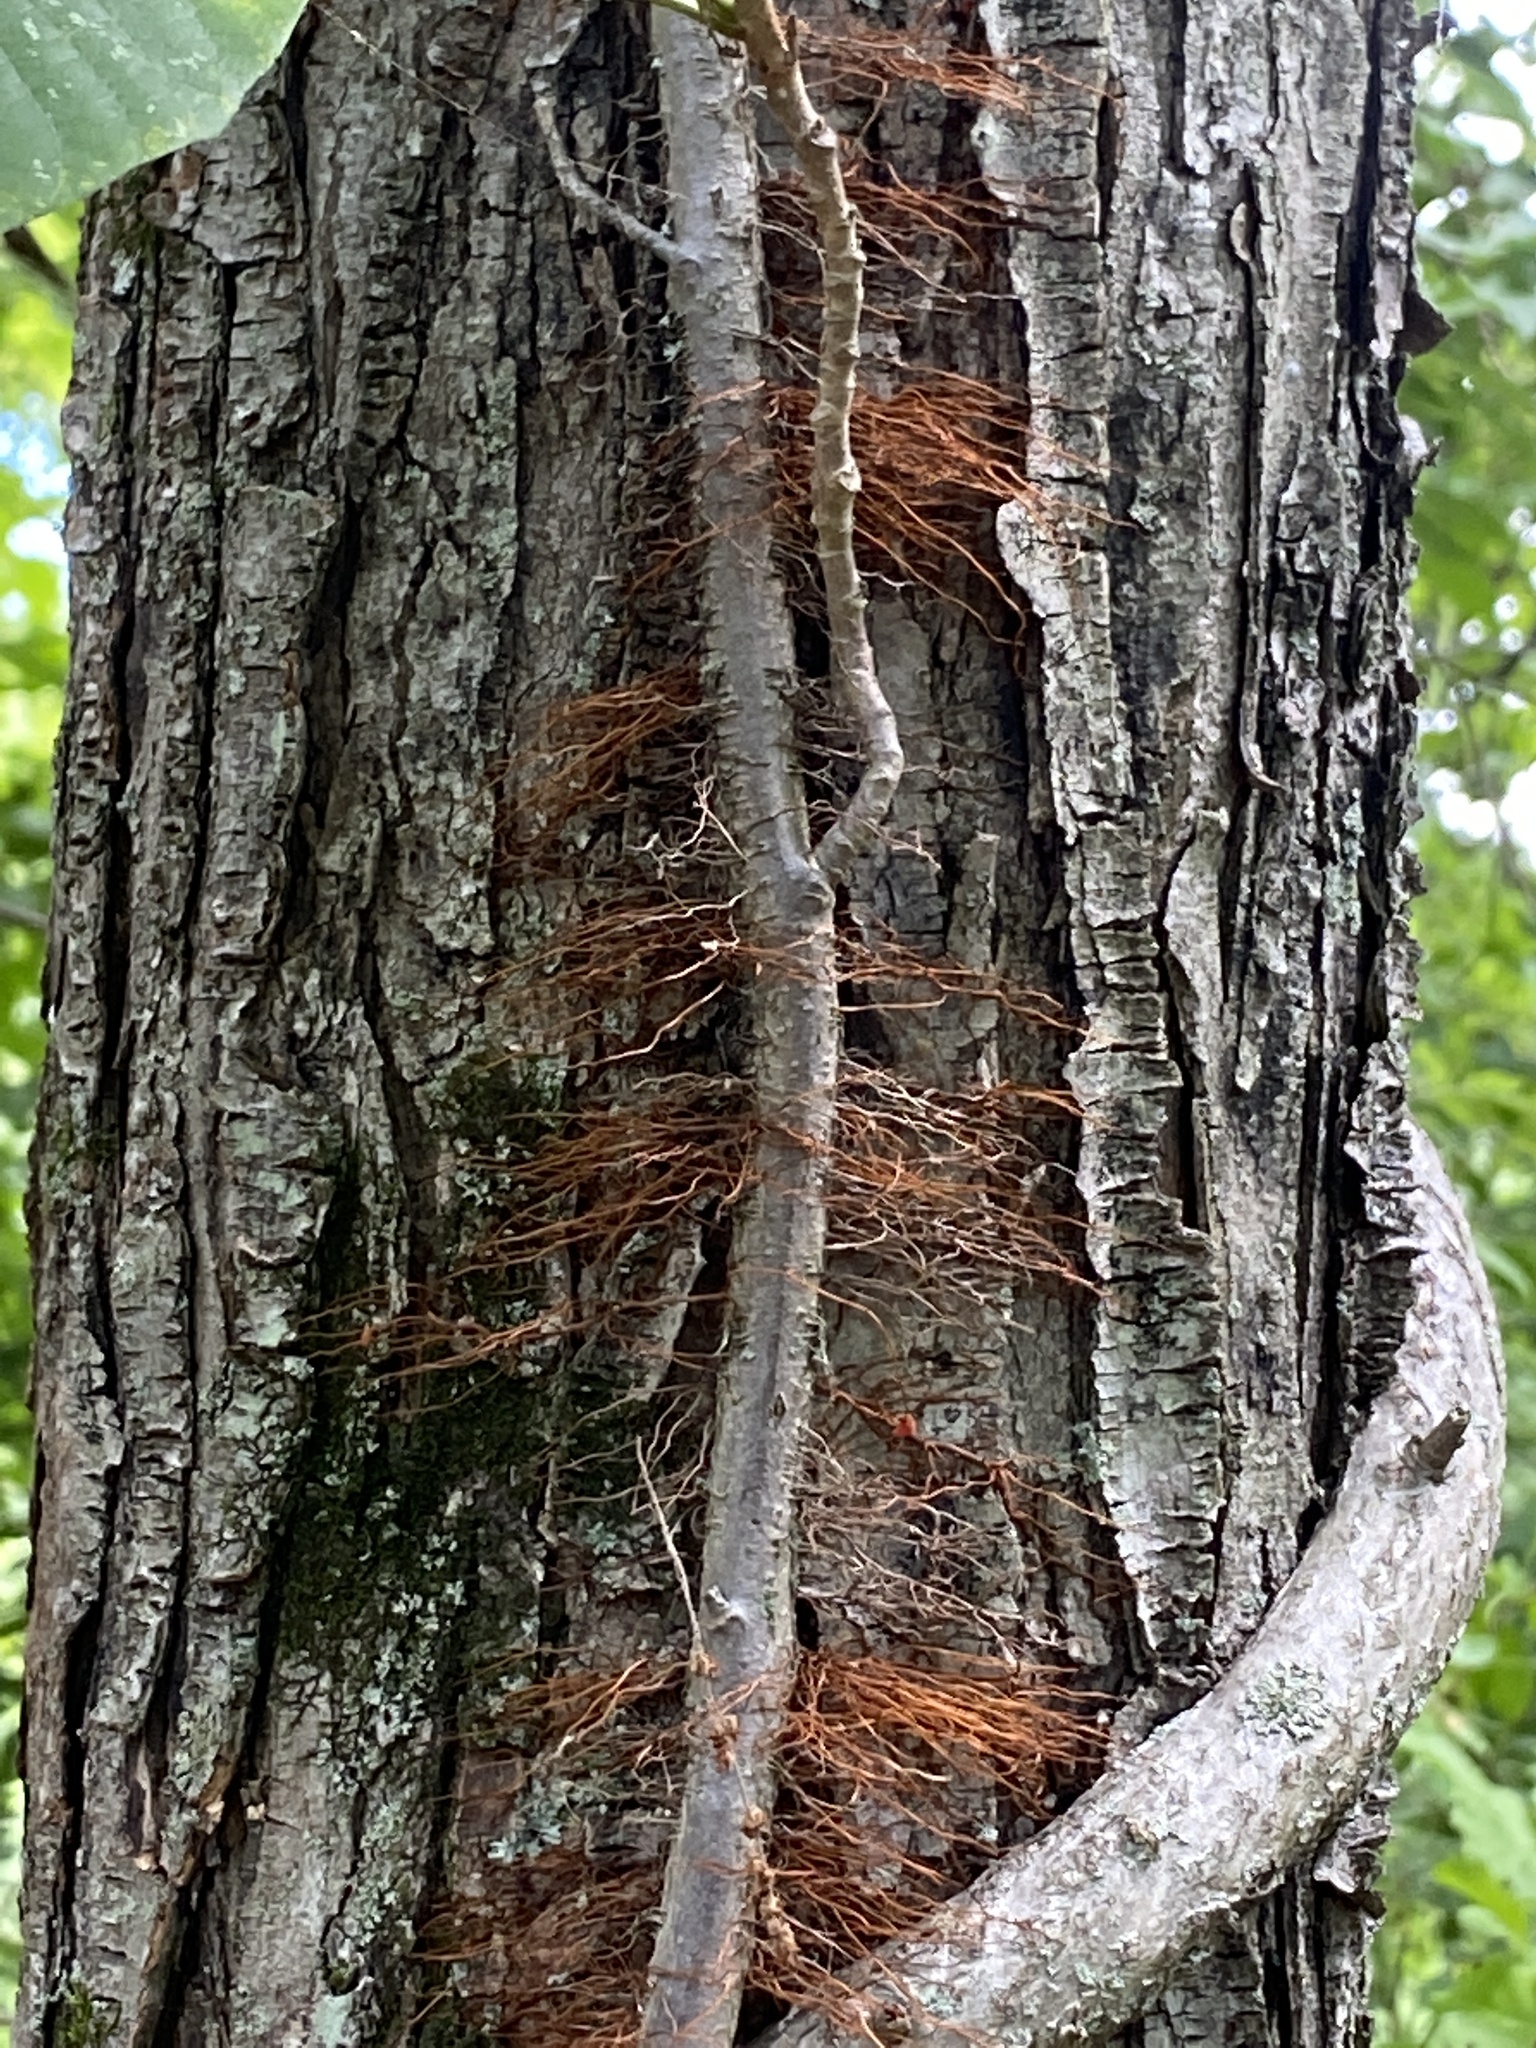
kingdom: Plantae
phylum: Tracheophyta
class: Magnoliopsida
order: Sapindales
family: Anacardiaceae
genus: Toxicodendron
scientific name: Toxicodendron radicans
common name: Poison ivy
